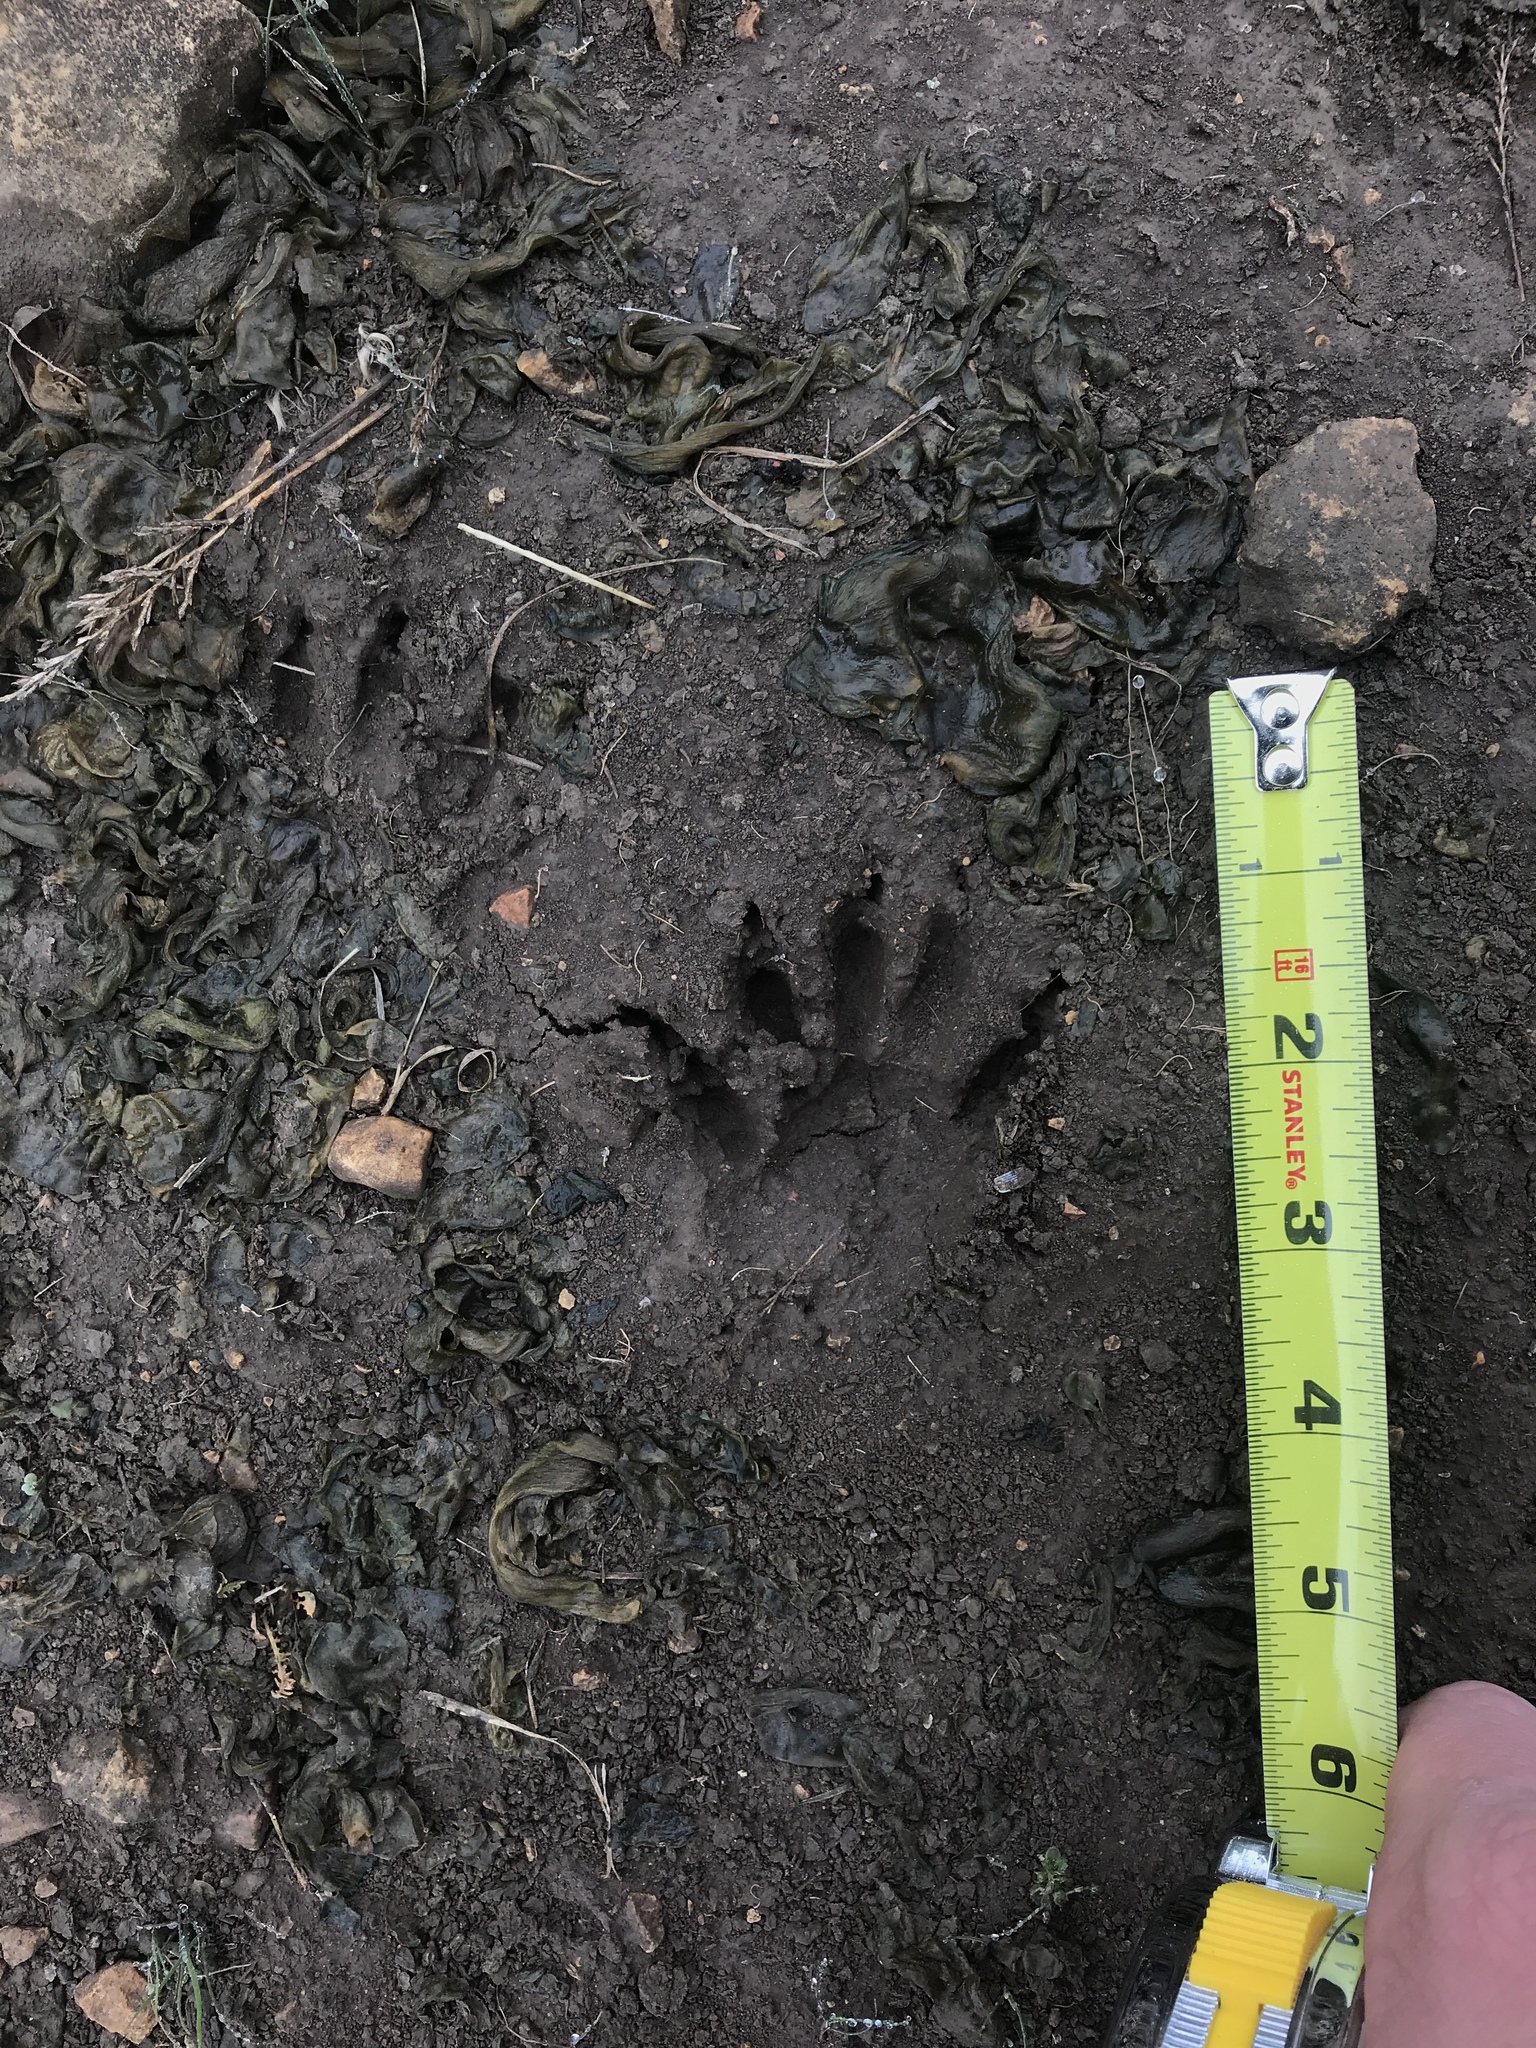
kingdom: Animalia
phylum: Chordata
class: Mammalia
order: Carnivora
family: Procyonidae
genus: Procyon
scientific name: Procyon lotor
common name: Raccoon
